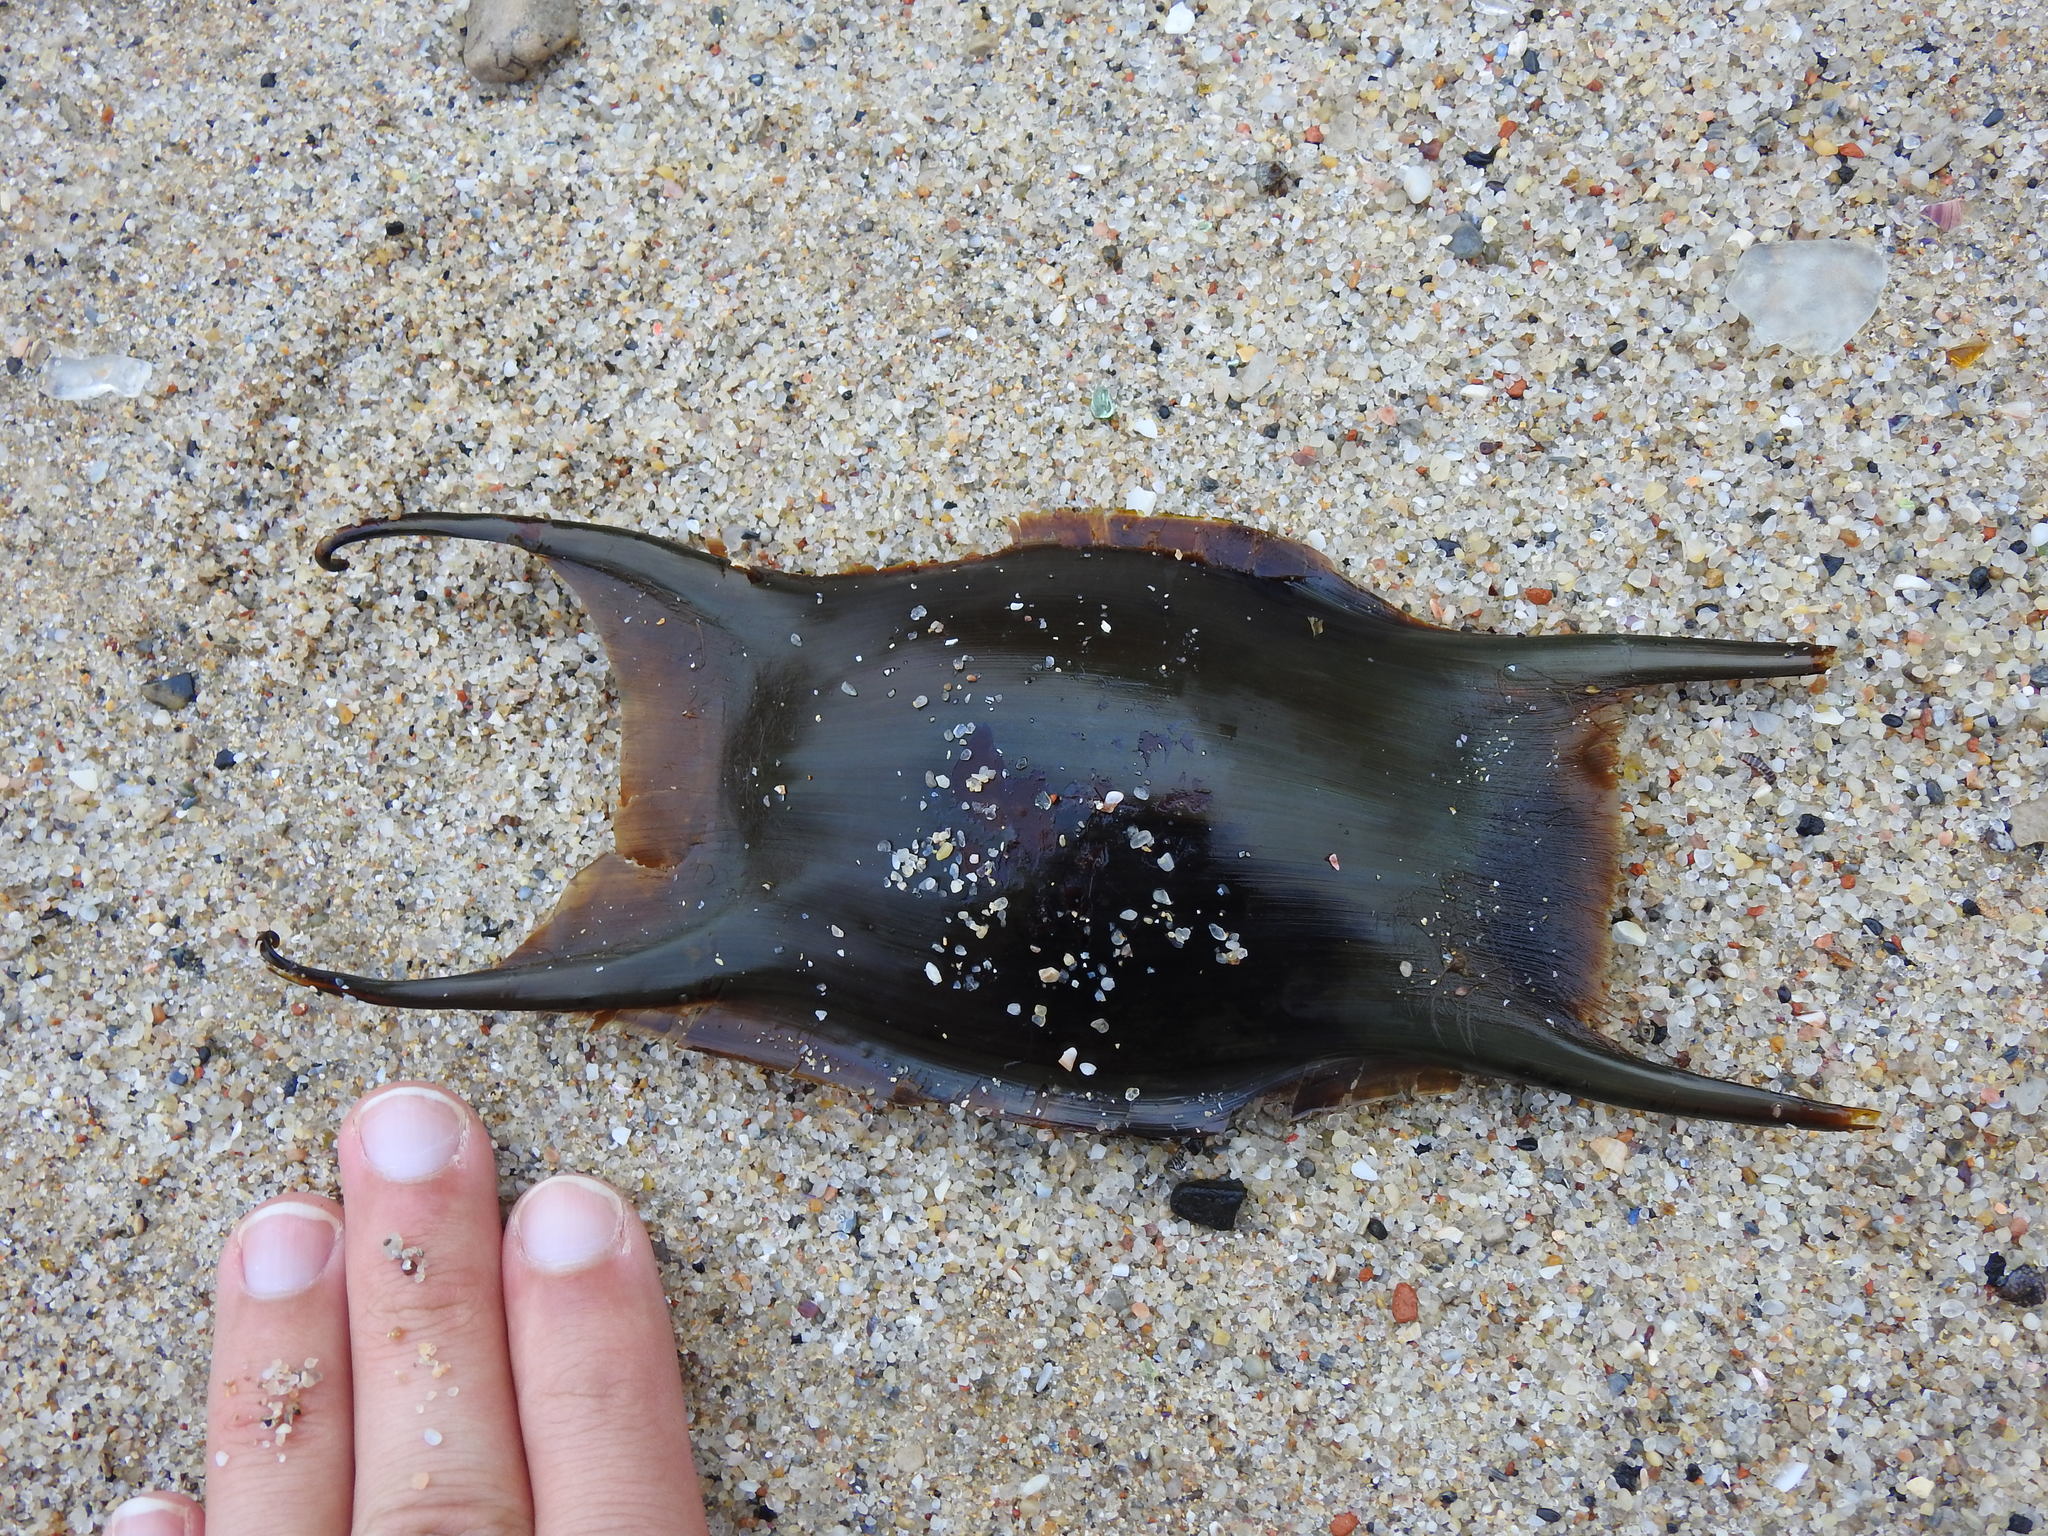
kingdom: Animalia
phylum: Chordata
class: Elasmobranchii
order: Rajiformes
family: Rajidae
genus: Raja
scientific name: Raja brachyura
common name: Blonde ray
